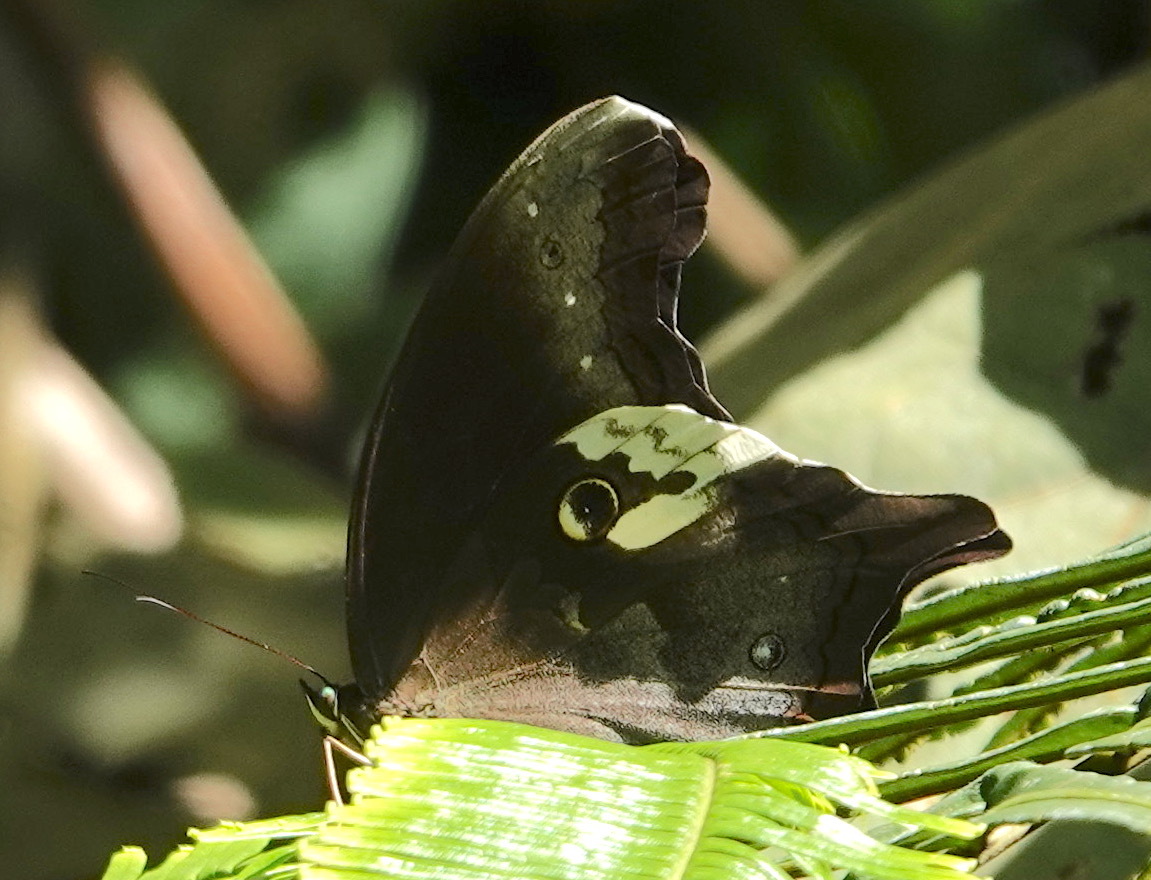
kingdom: Animalia
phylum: Arthropoda
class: Insecta
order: Lepidoptera
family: Nymphalidae
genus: Neorina
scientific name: Neorina lowii
